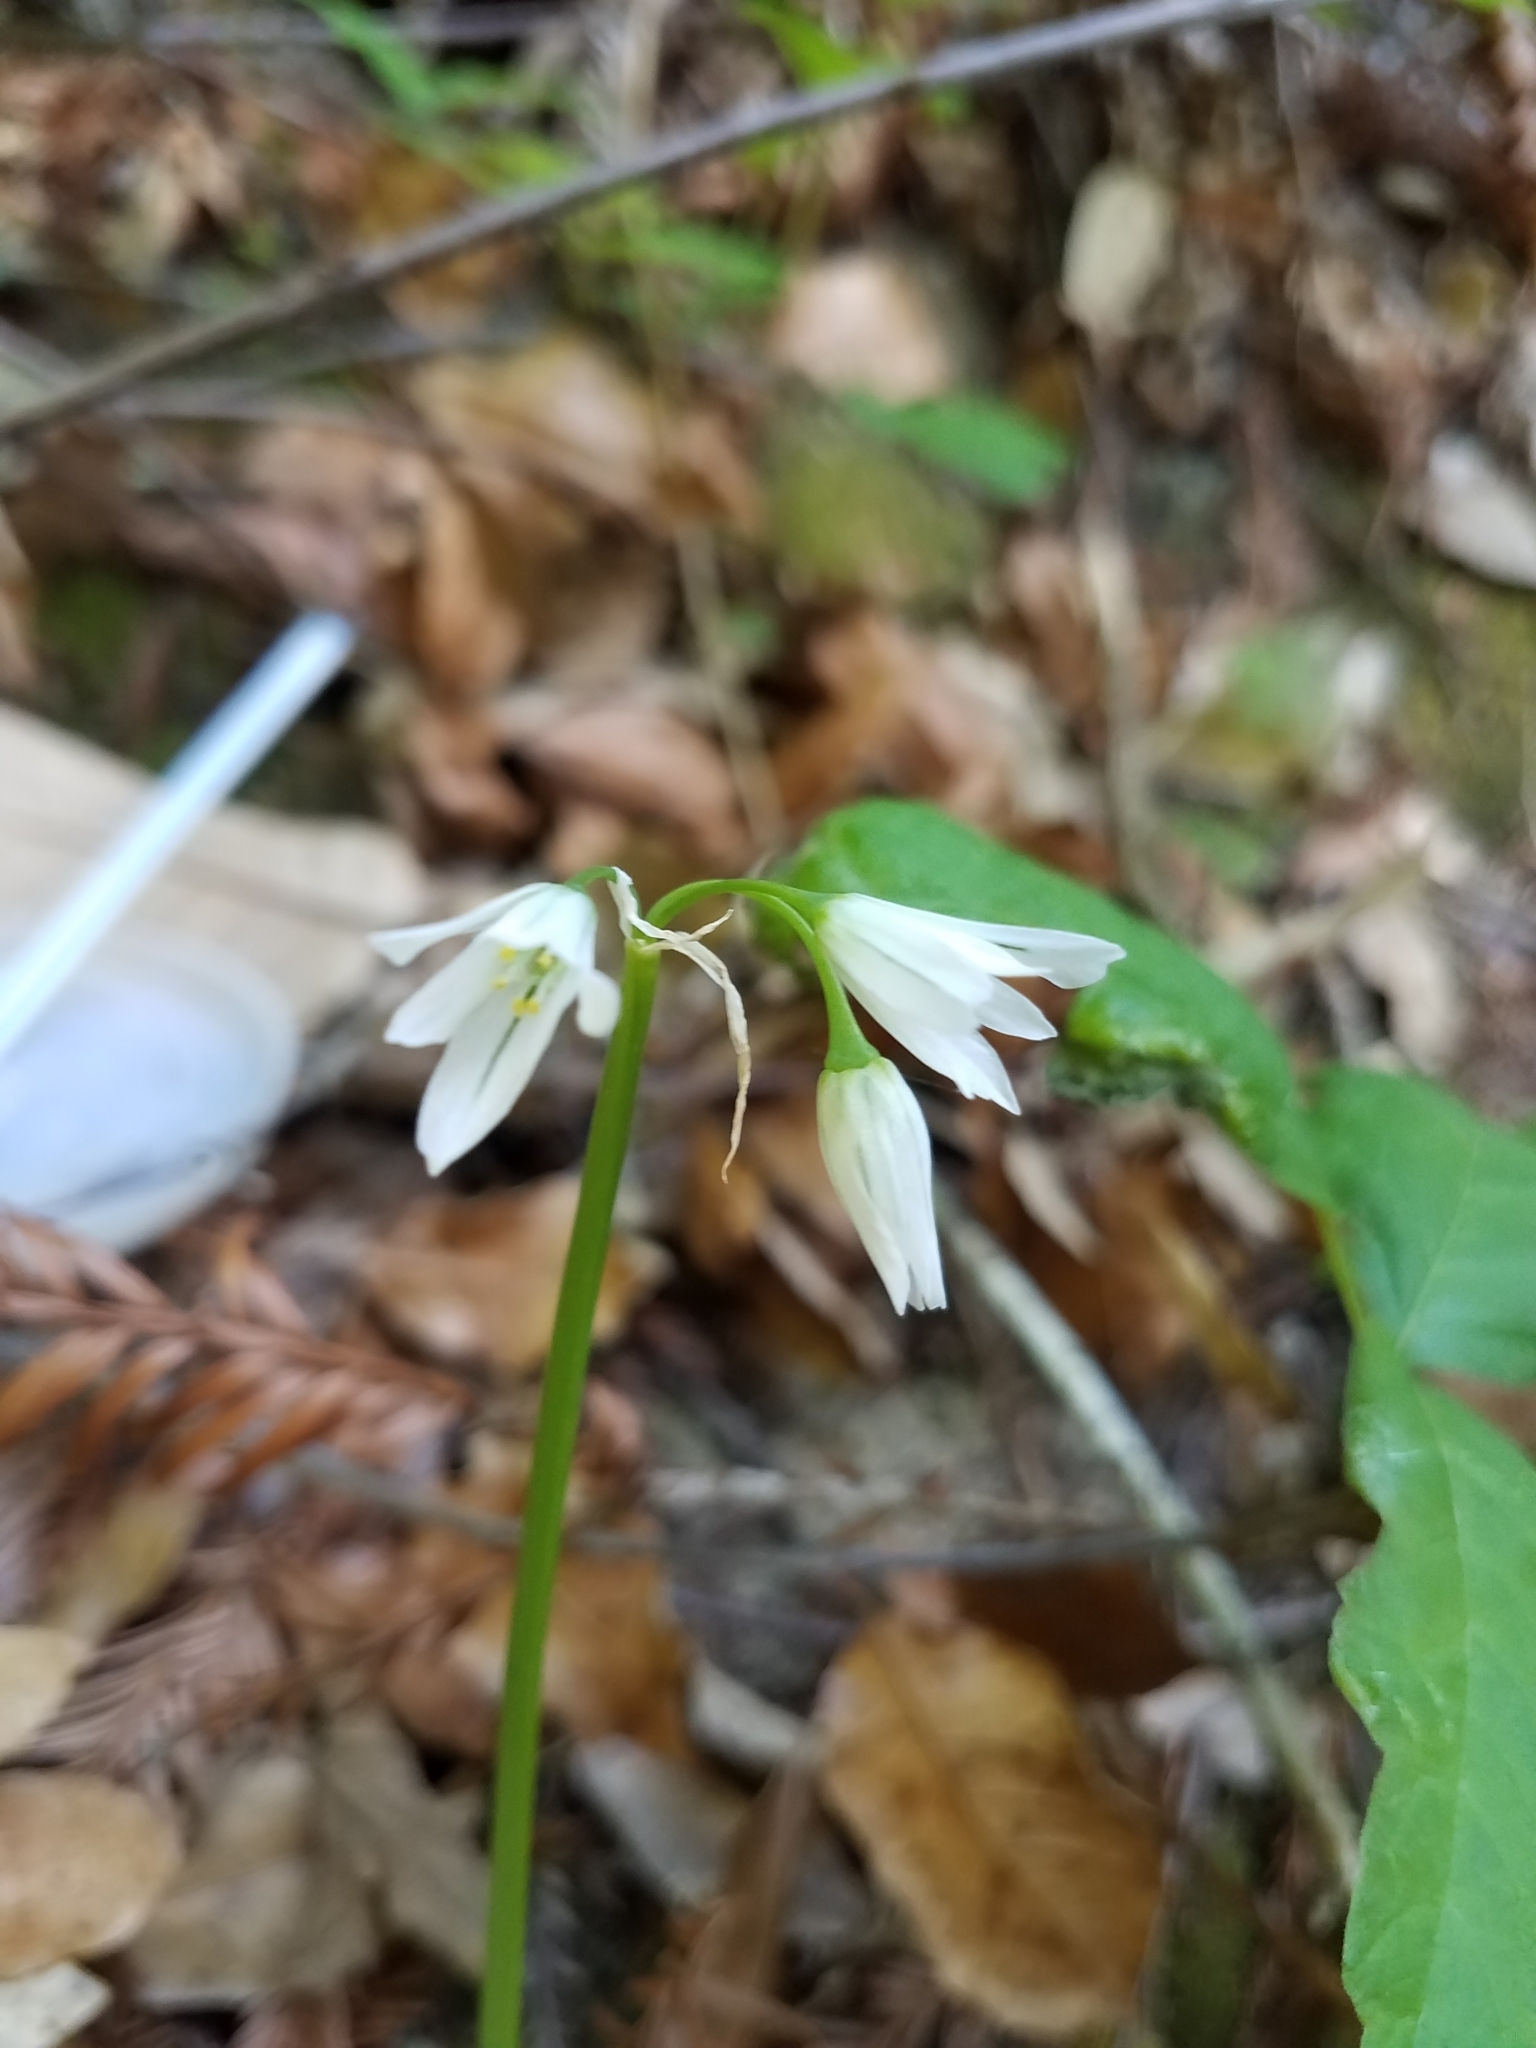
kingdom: Plantae
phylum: Tracheophyta
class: Liliopsida
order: Asparagales
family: Amaryllidaceae
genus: Allium
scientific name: Allium triquetrum
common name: Three-cornered garlic
